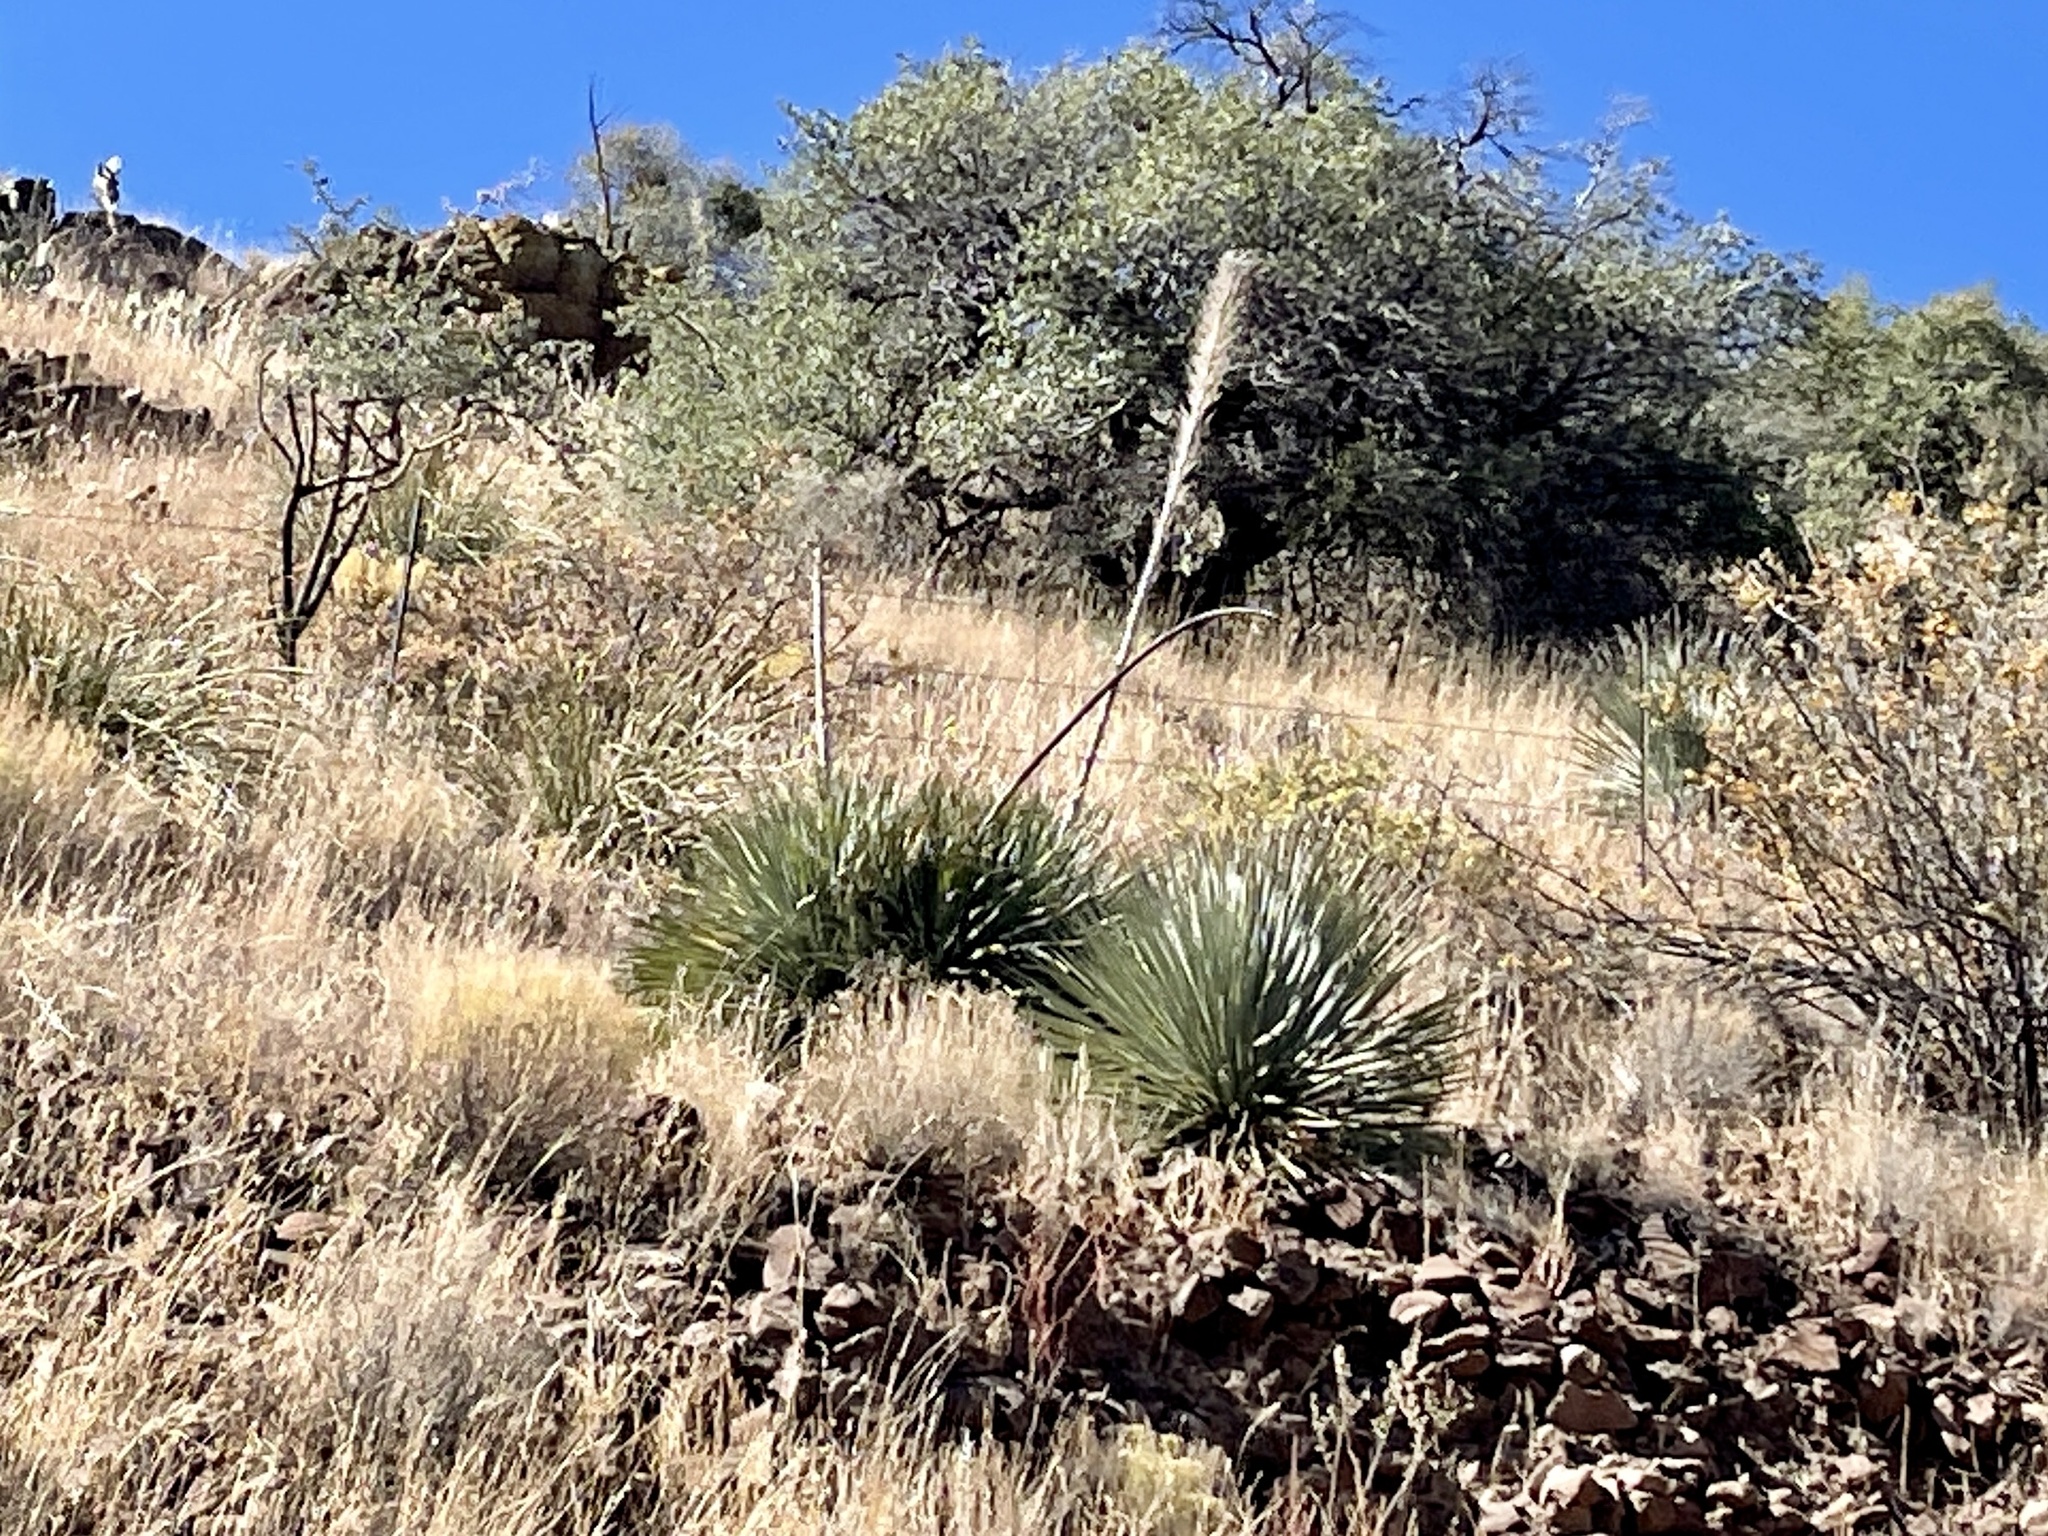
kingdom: Plantae
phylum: Tracheophyta
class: Liliopsida
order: Asparagales
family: Asparagaceae
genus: Dasylirion
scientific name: Dasylirion wheeleri
